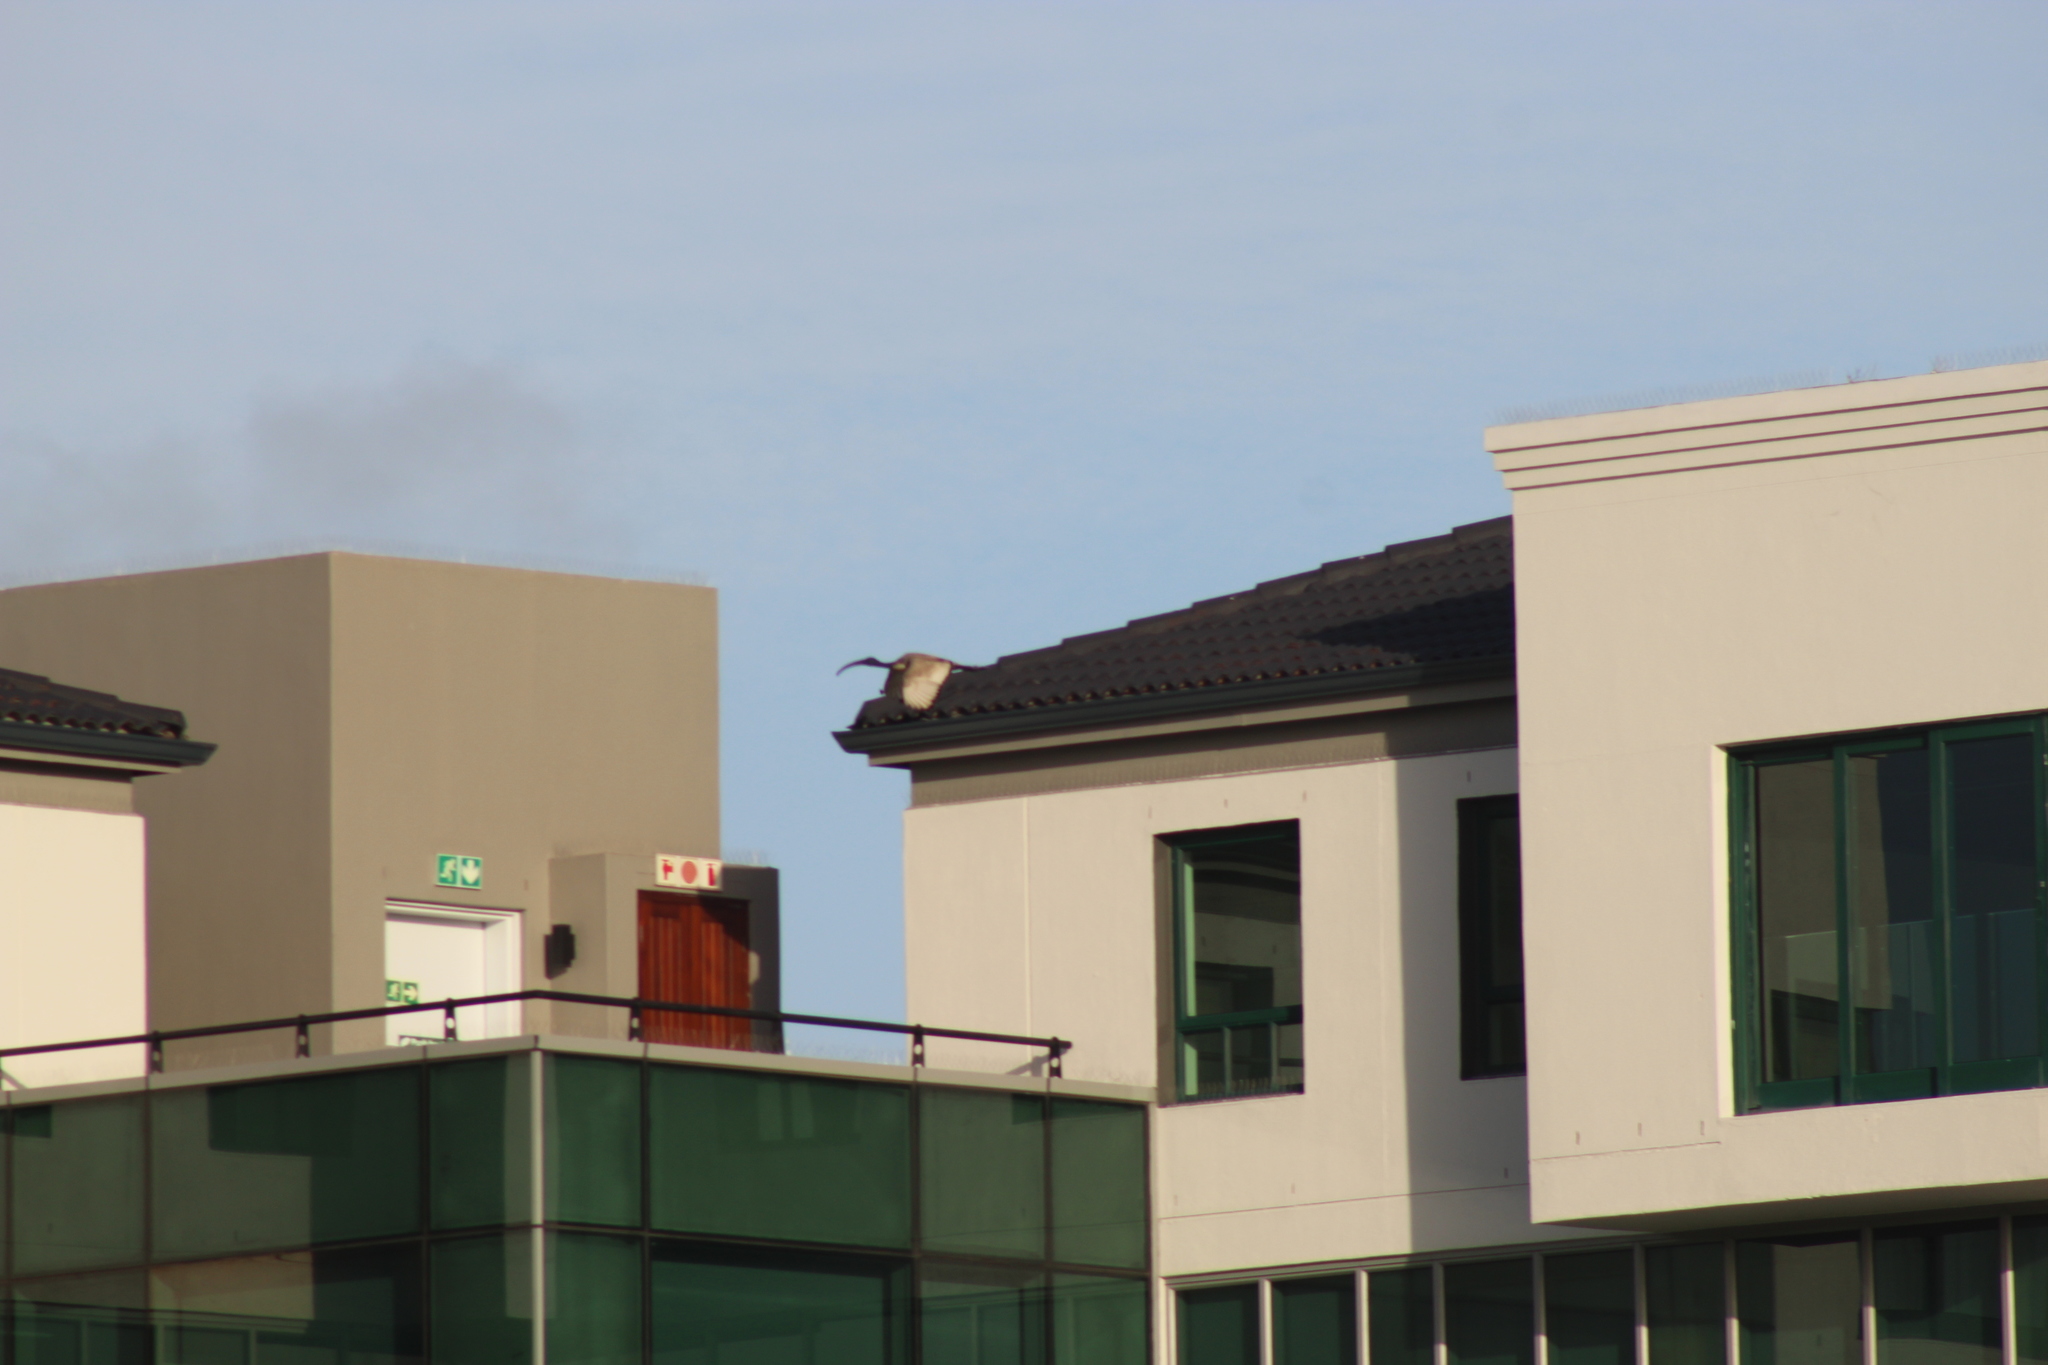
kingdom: Animalia
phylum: Chordata
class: Aves
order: Pelecaniformes
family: Threskiornithidae
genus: Threskiornis
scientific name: Threskiornis aethiopicus
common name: Sacred ibis
